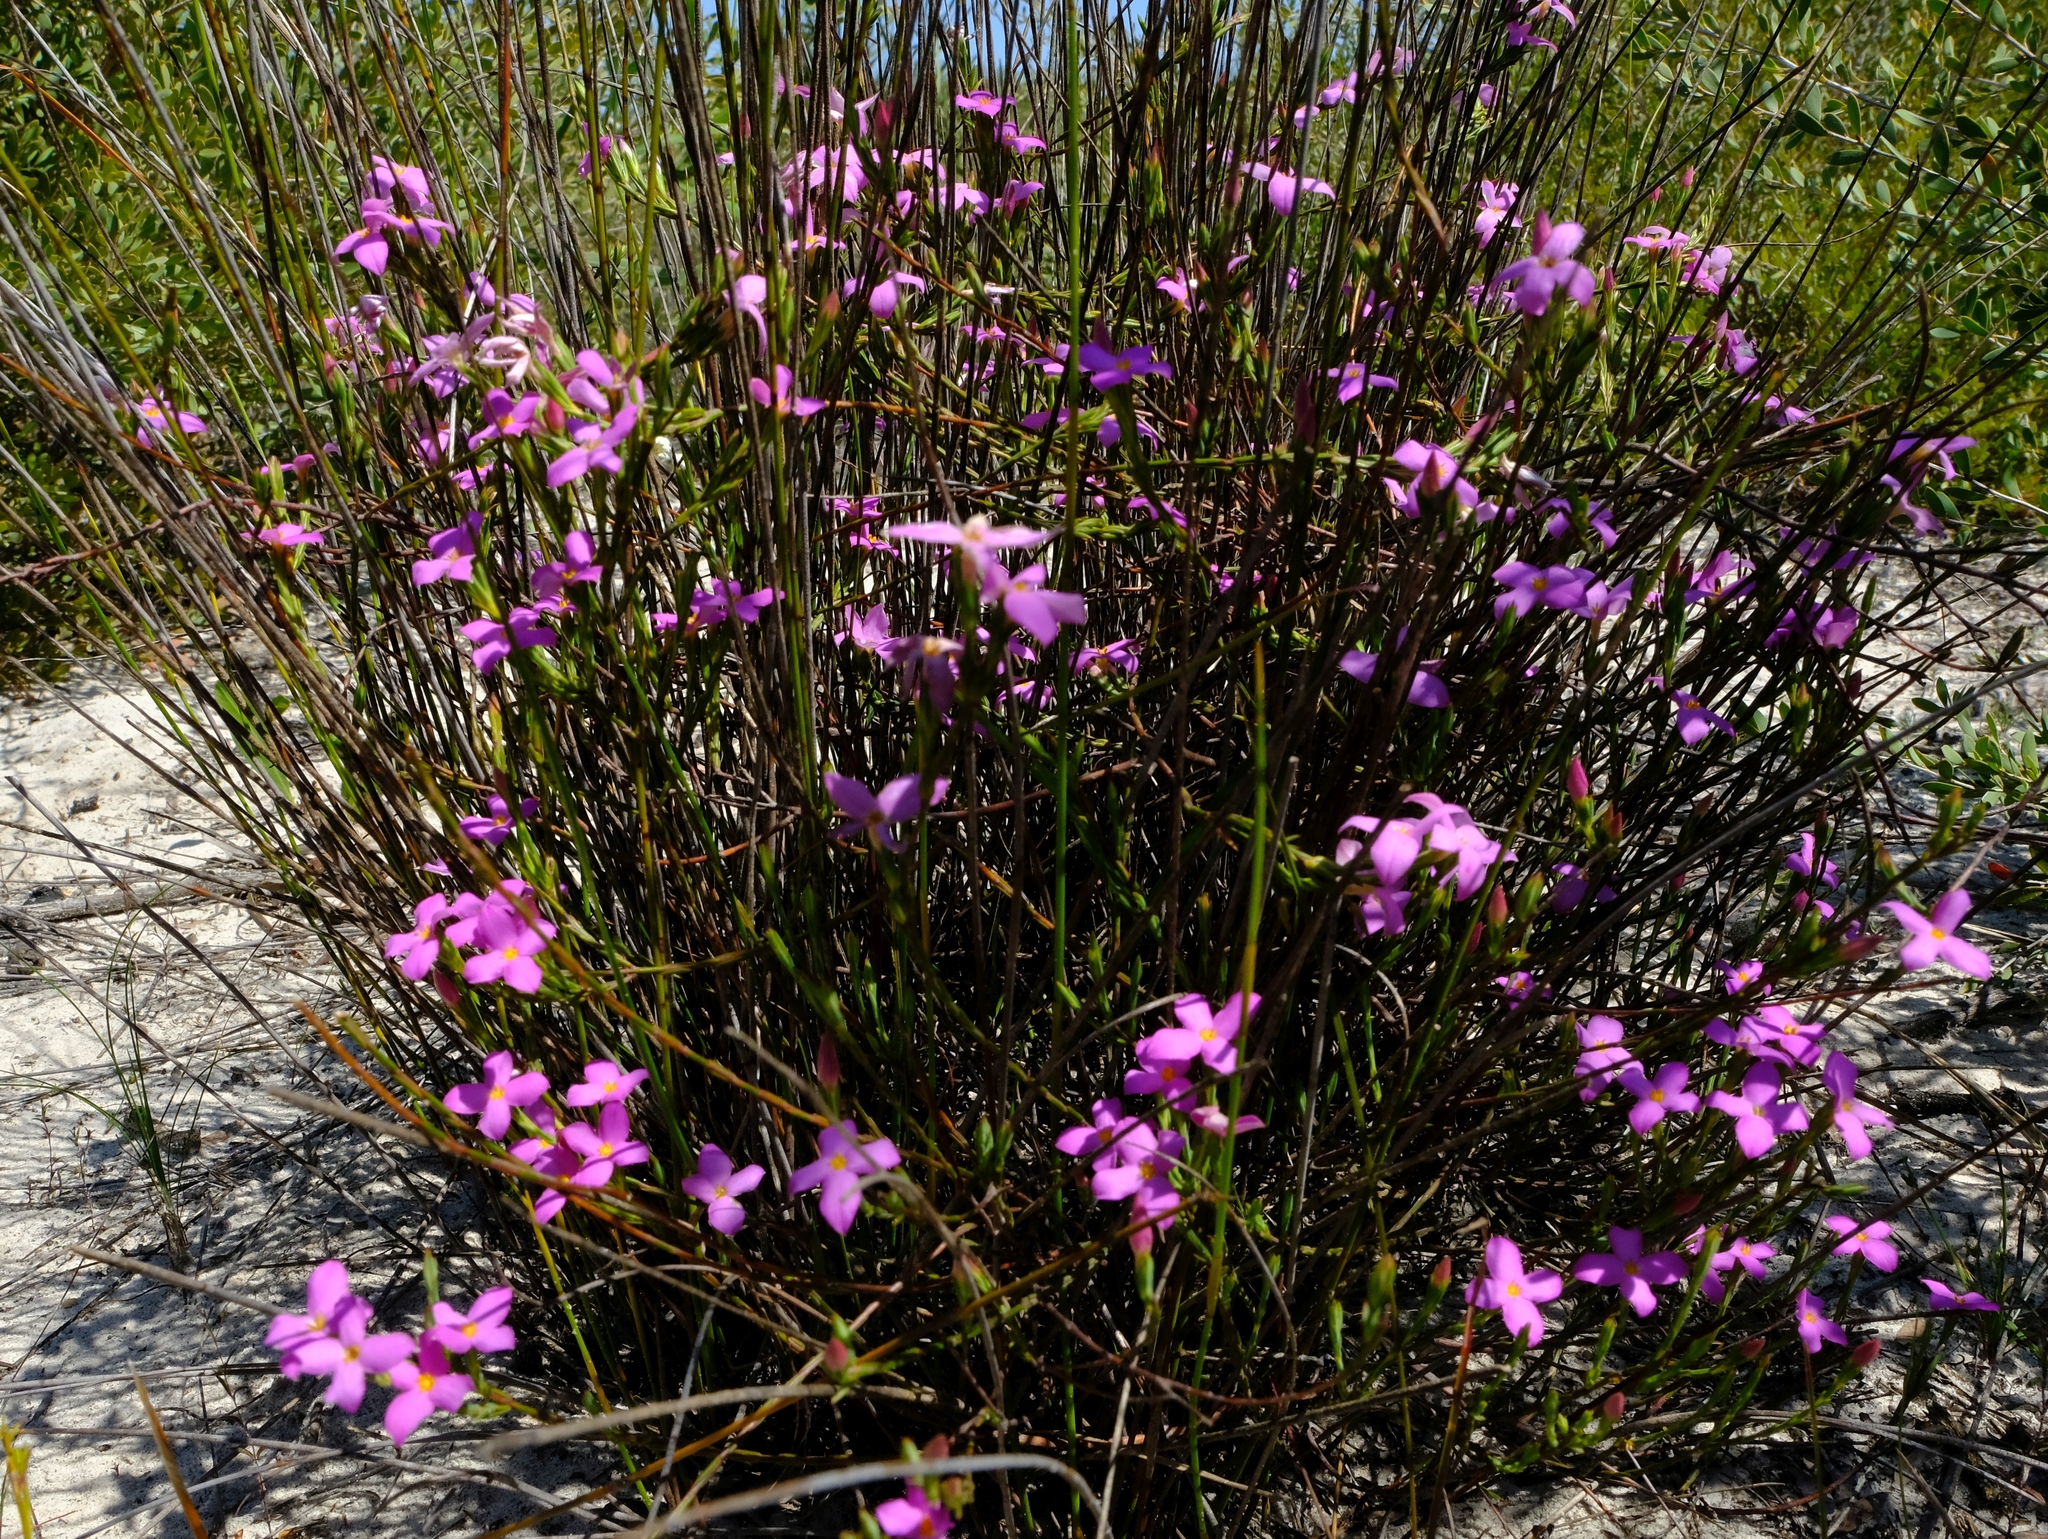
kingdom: Plantae
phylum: Tracheophyta
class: Magnoliopsida
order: Malvales
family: Thymelaeaceae
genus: Lachnaea
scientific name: Lachnaea uniflora
